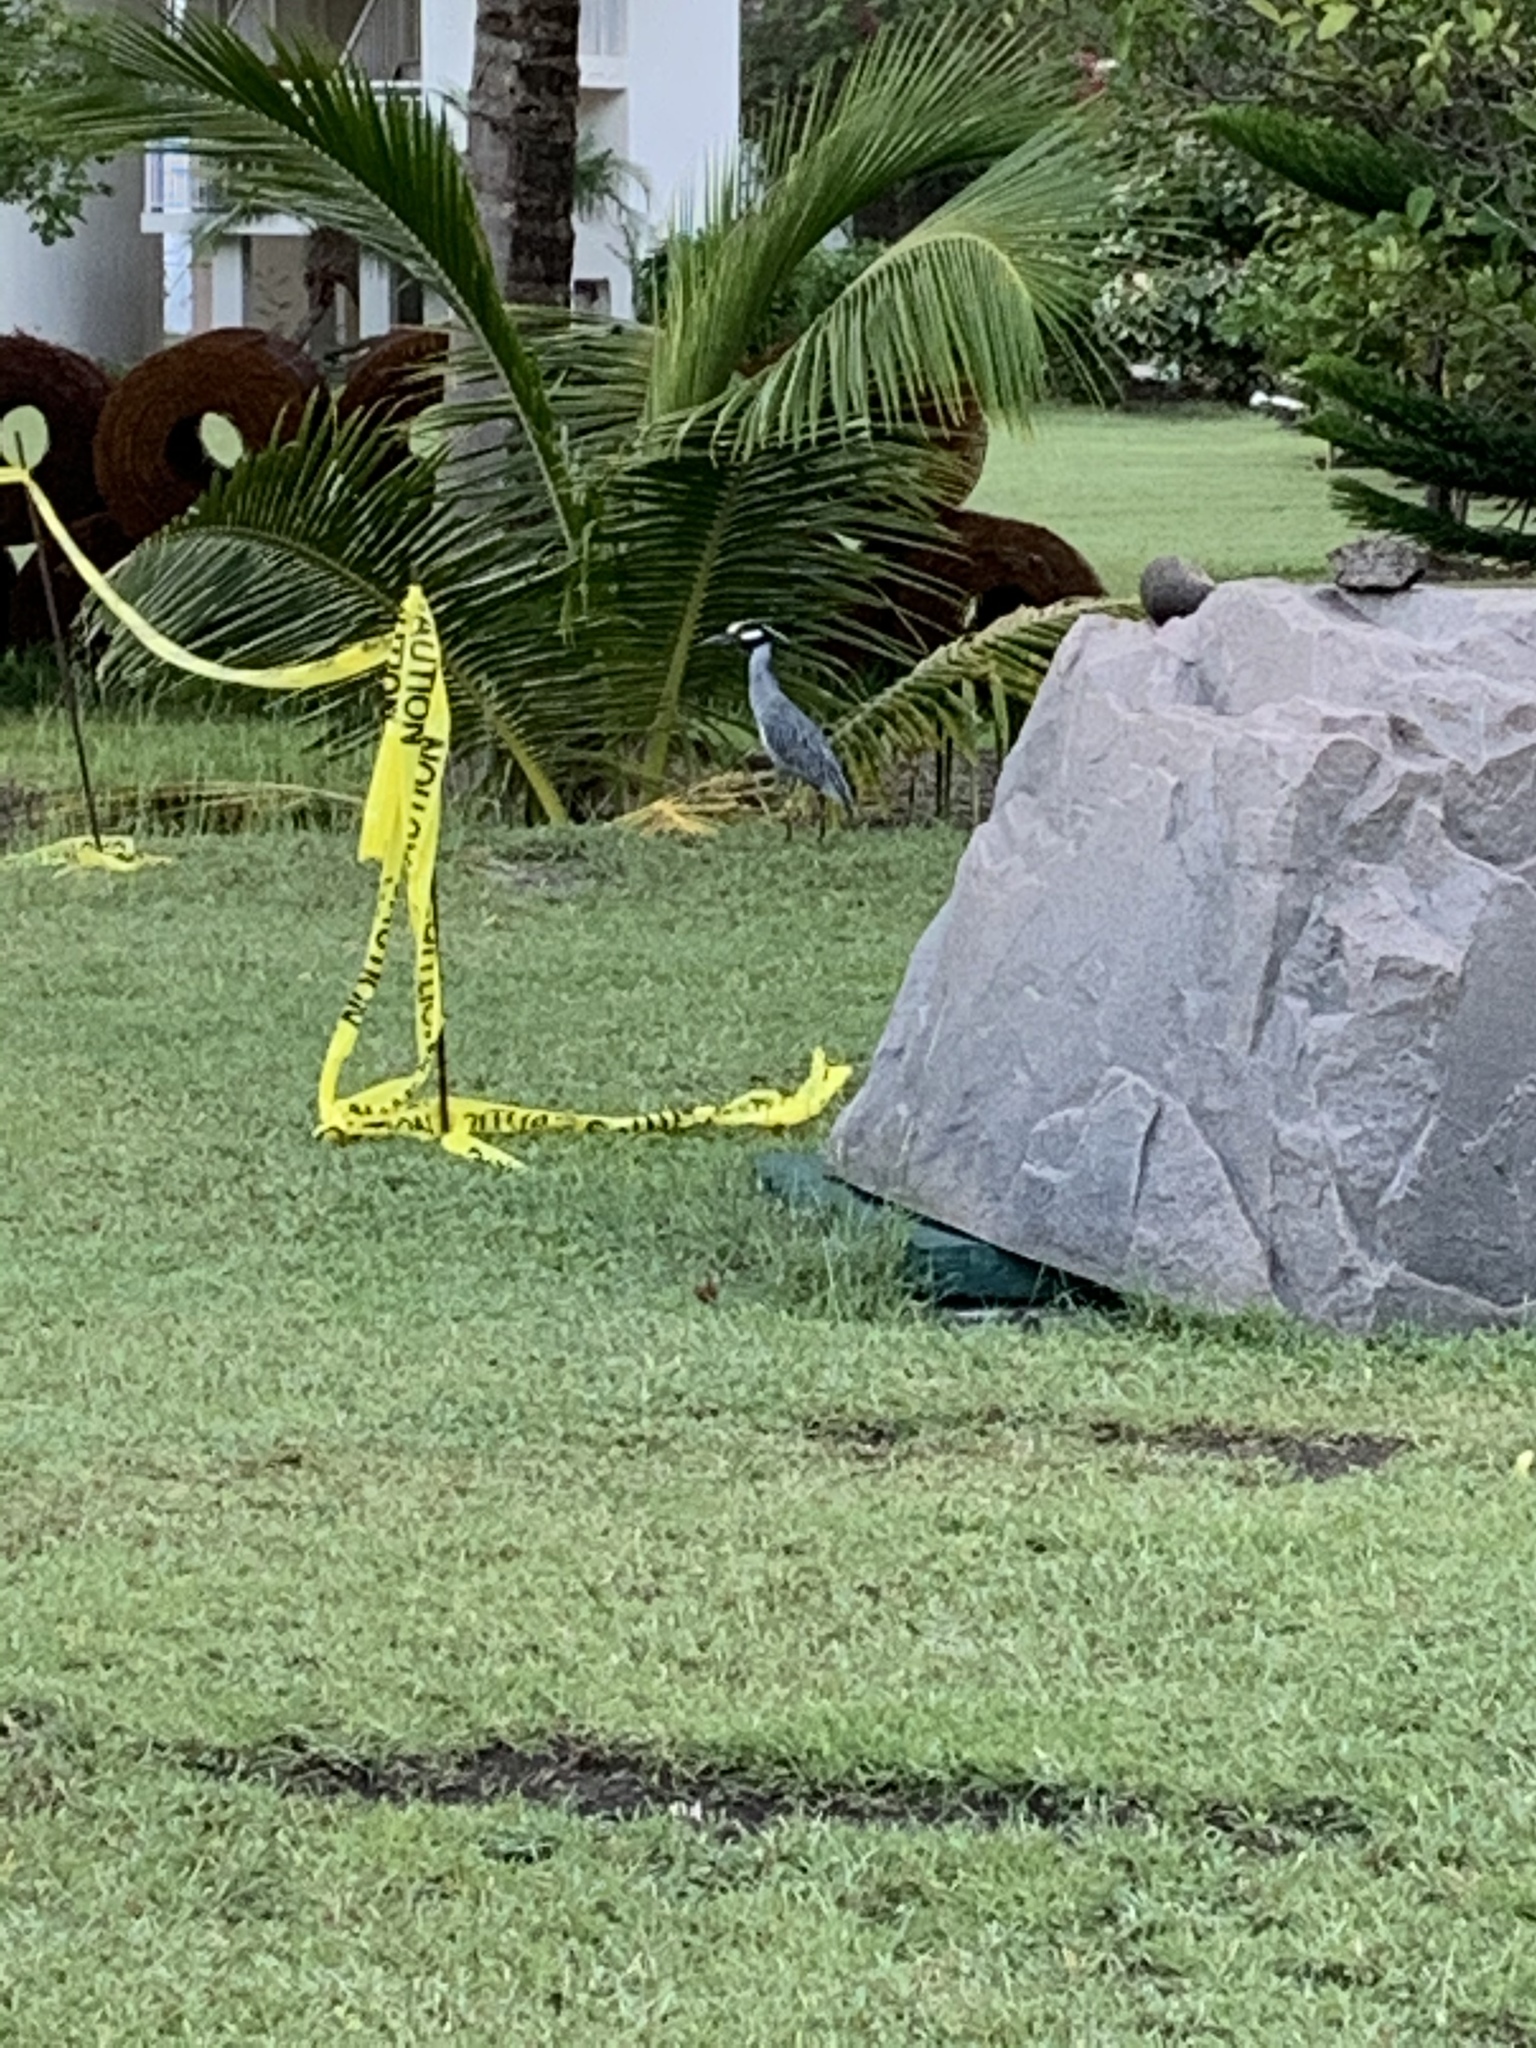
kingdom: Animalia
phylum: Chordata
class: Aves
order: Pelecaniformes
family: Ardeidae
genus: Nyctanassa
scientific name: Nyctanassa violacea
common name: Yellow-crowned night heron
